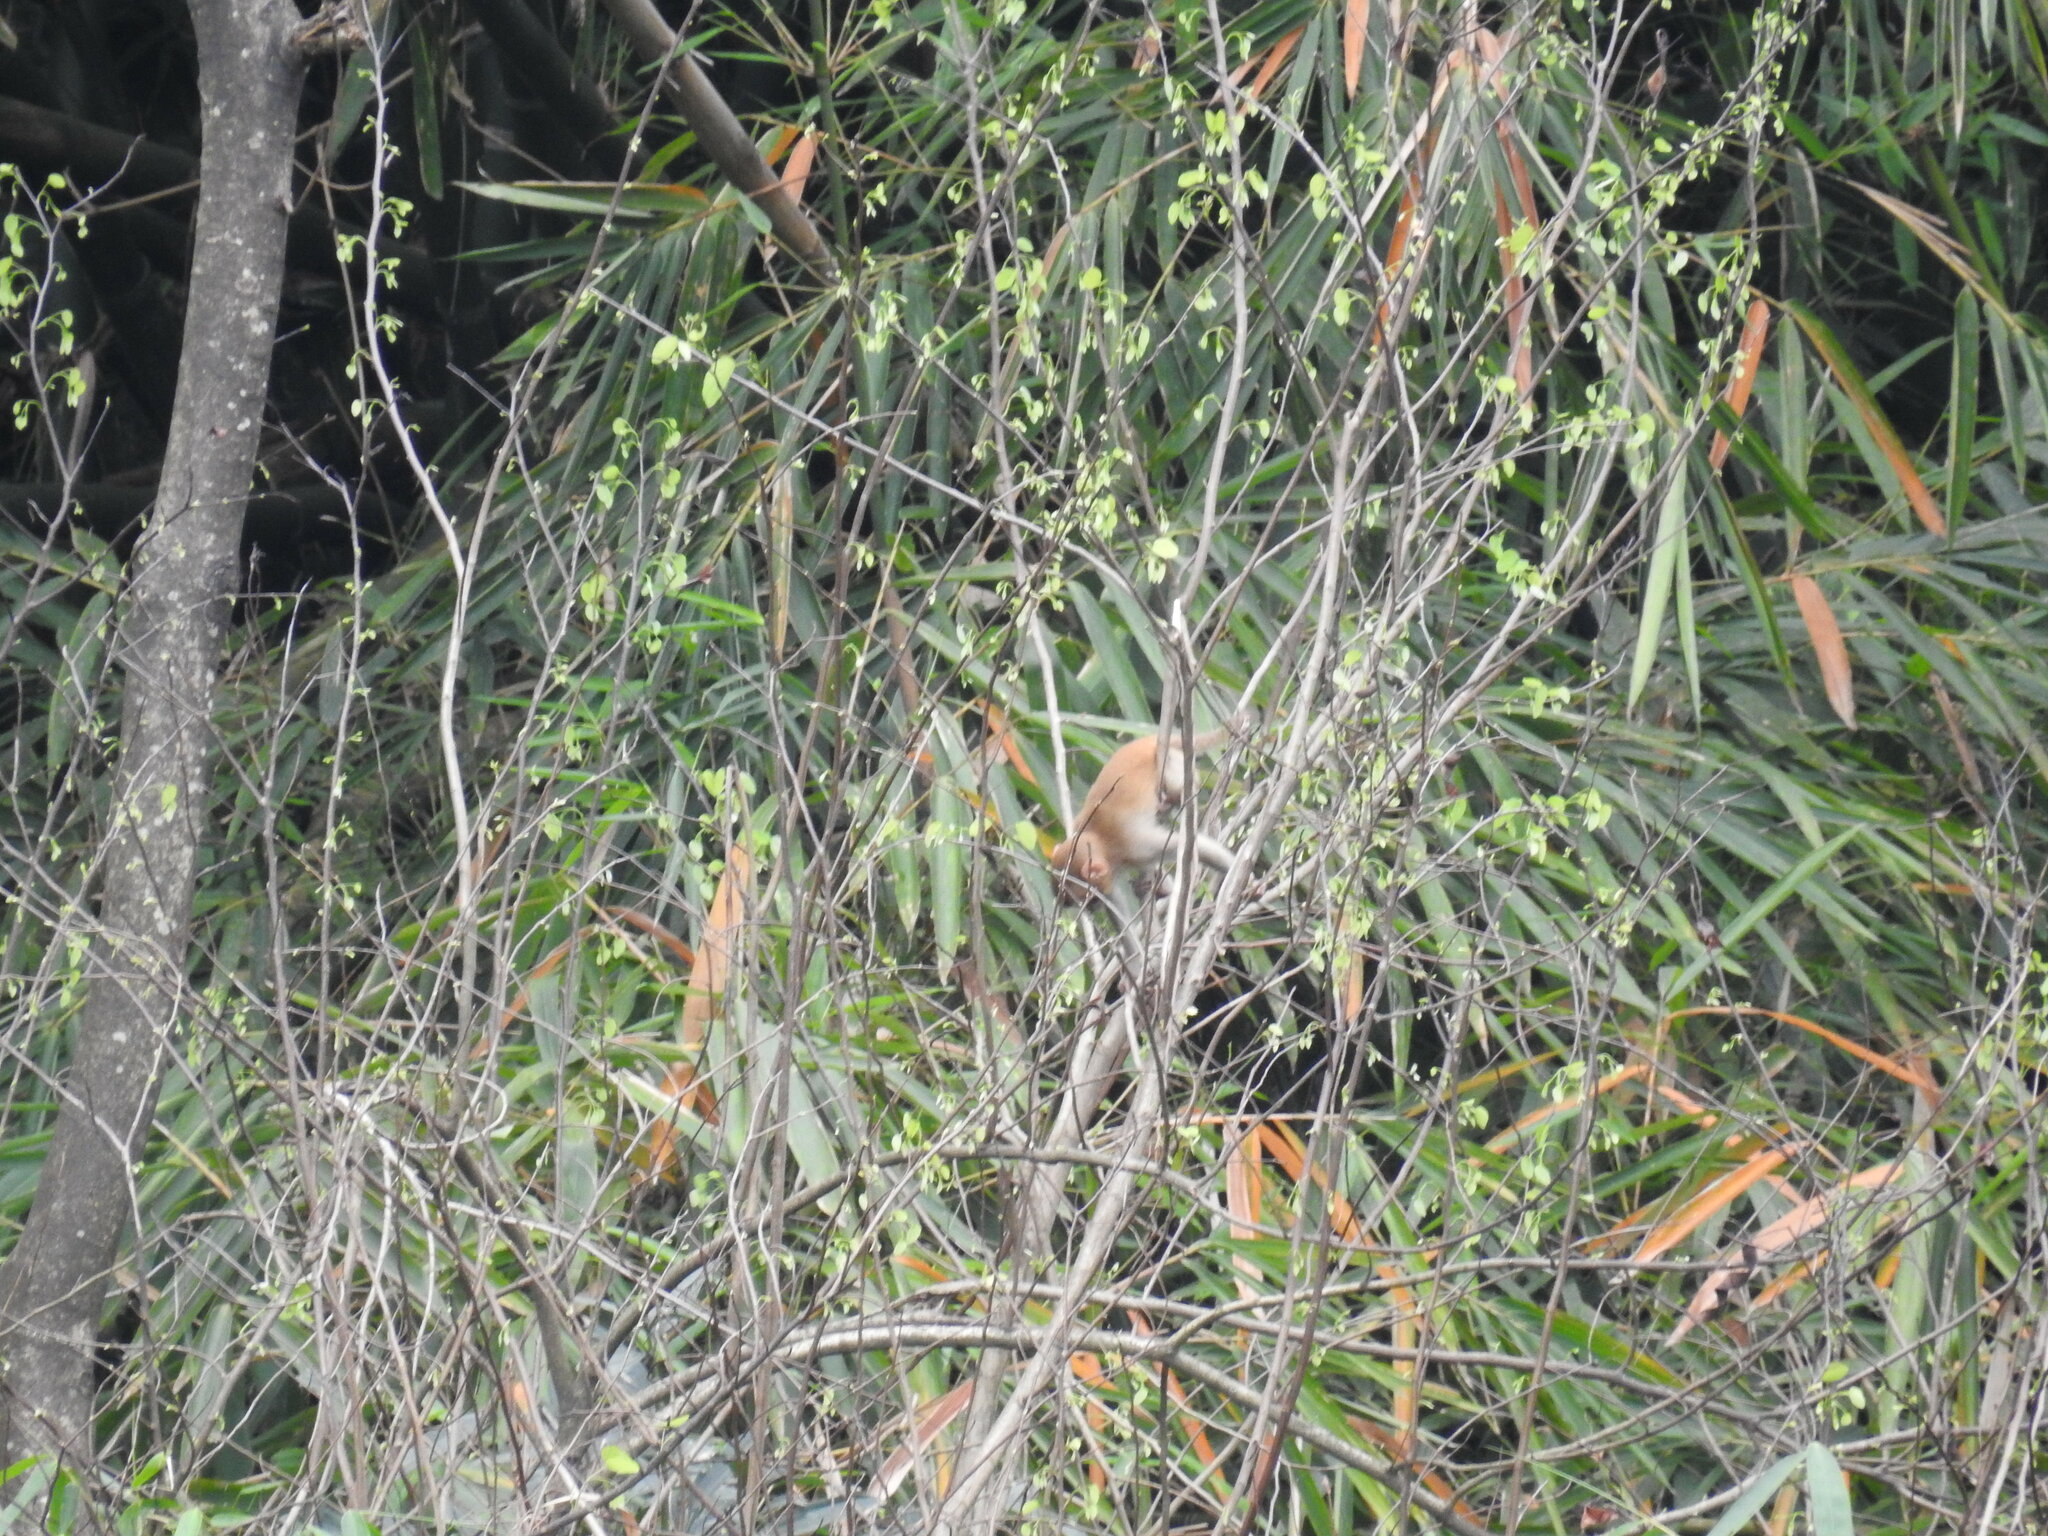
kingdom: Animalia
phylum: Chordata
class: Mammalia
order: Primates
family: Cercopithecidae
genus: Macaca
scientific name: Macaca assamensis
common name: Assam macaque
